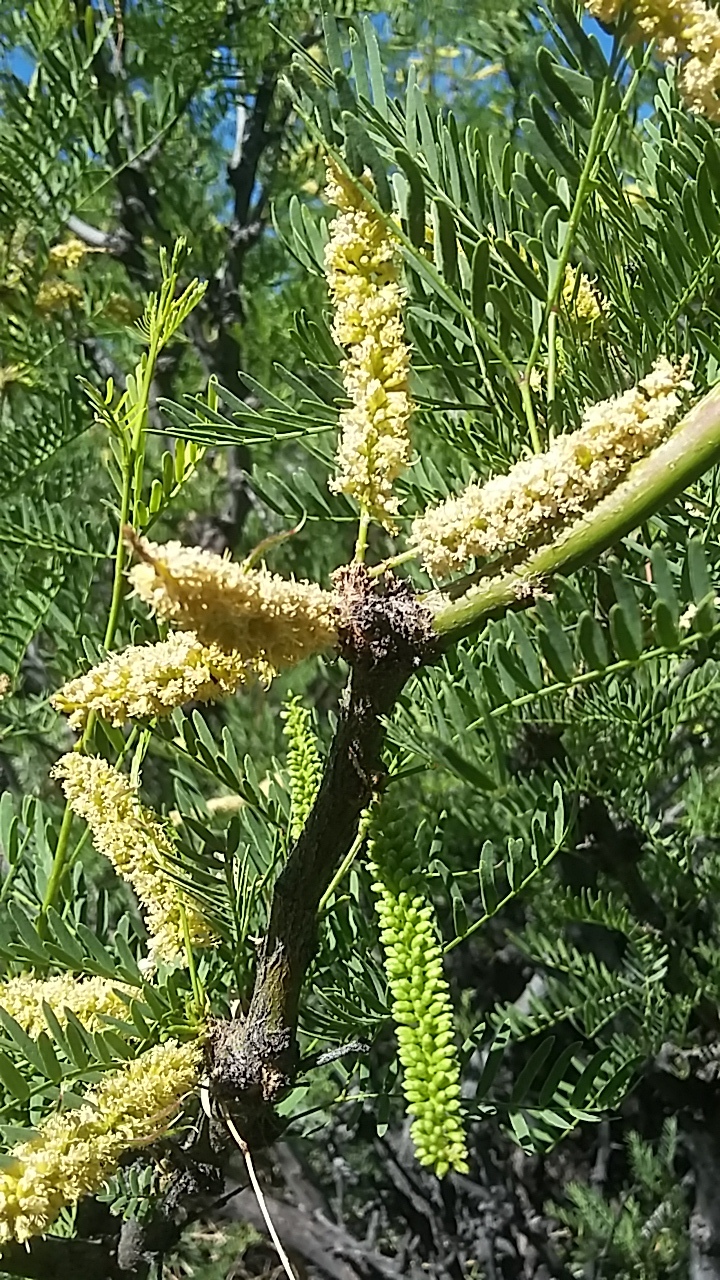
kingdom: Plantae
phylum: Tracheophyta
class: Magnoliopsida
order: Fabales
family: Fabaceae
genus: Prosopis
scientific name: Prosopis pubescens
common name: Screw-bean
